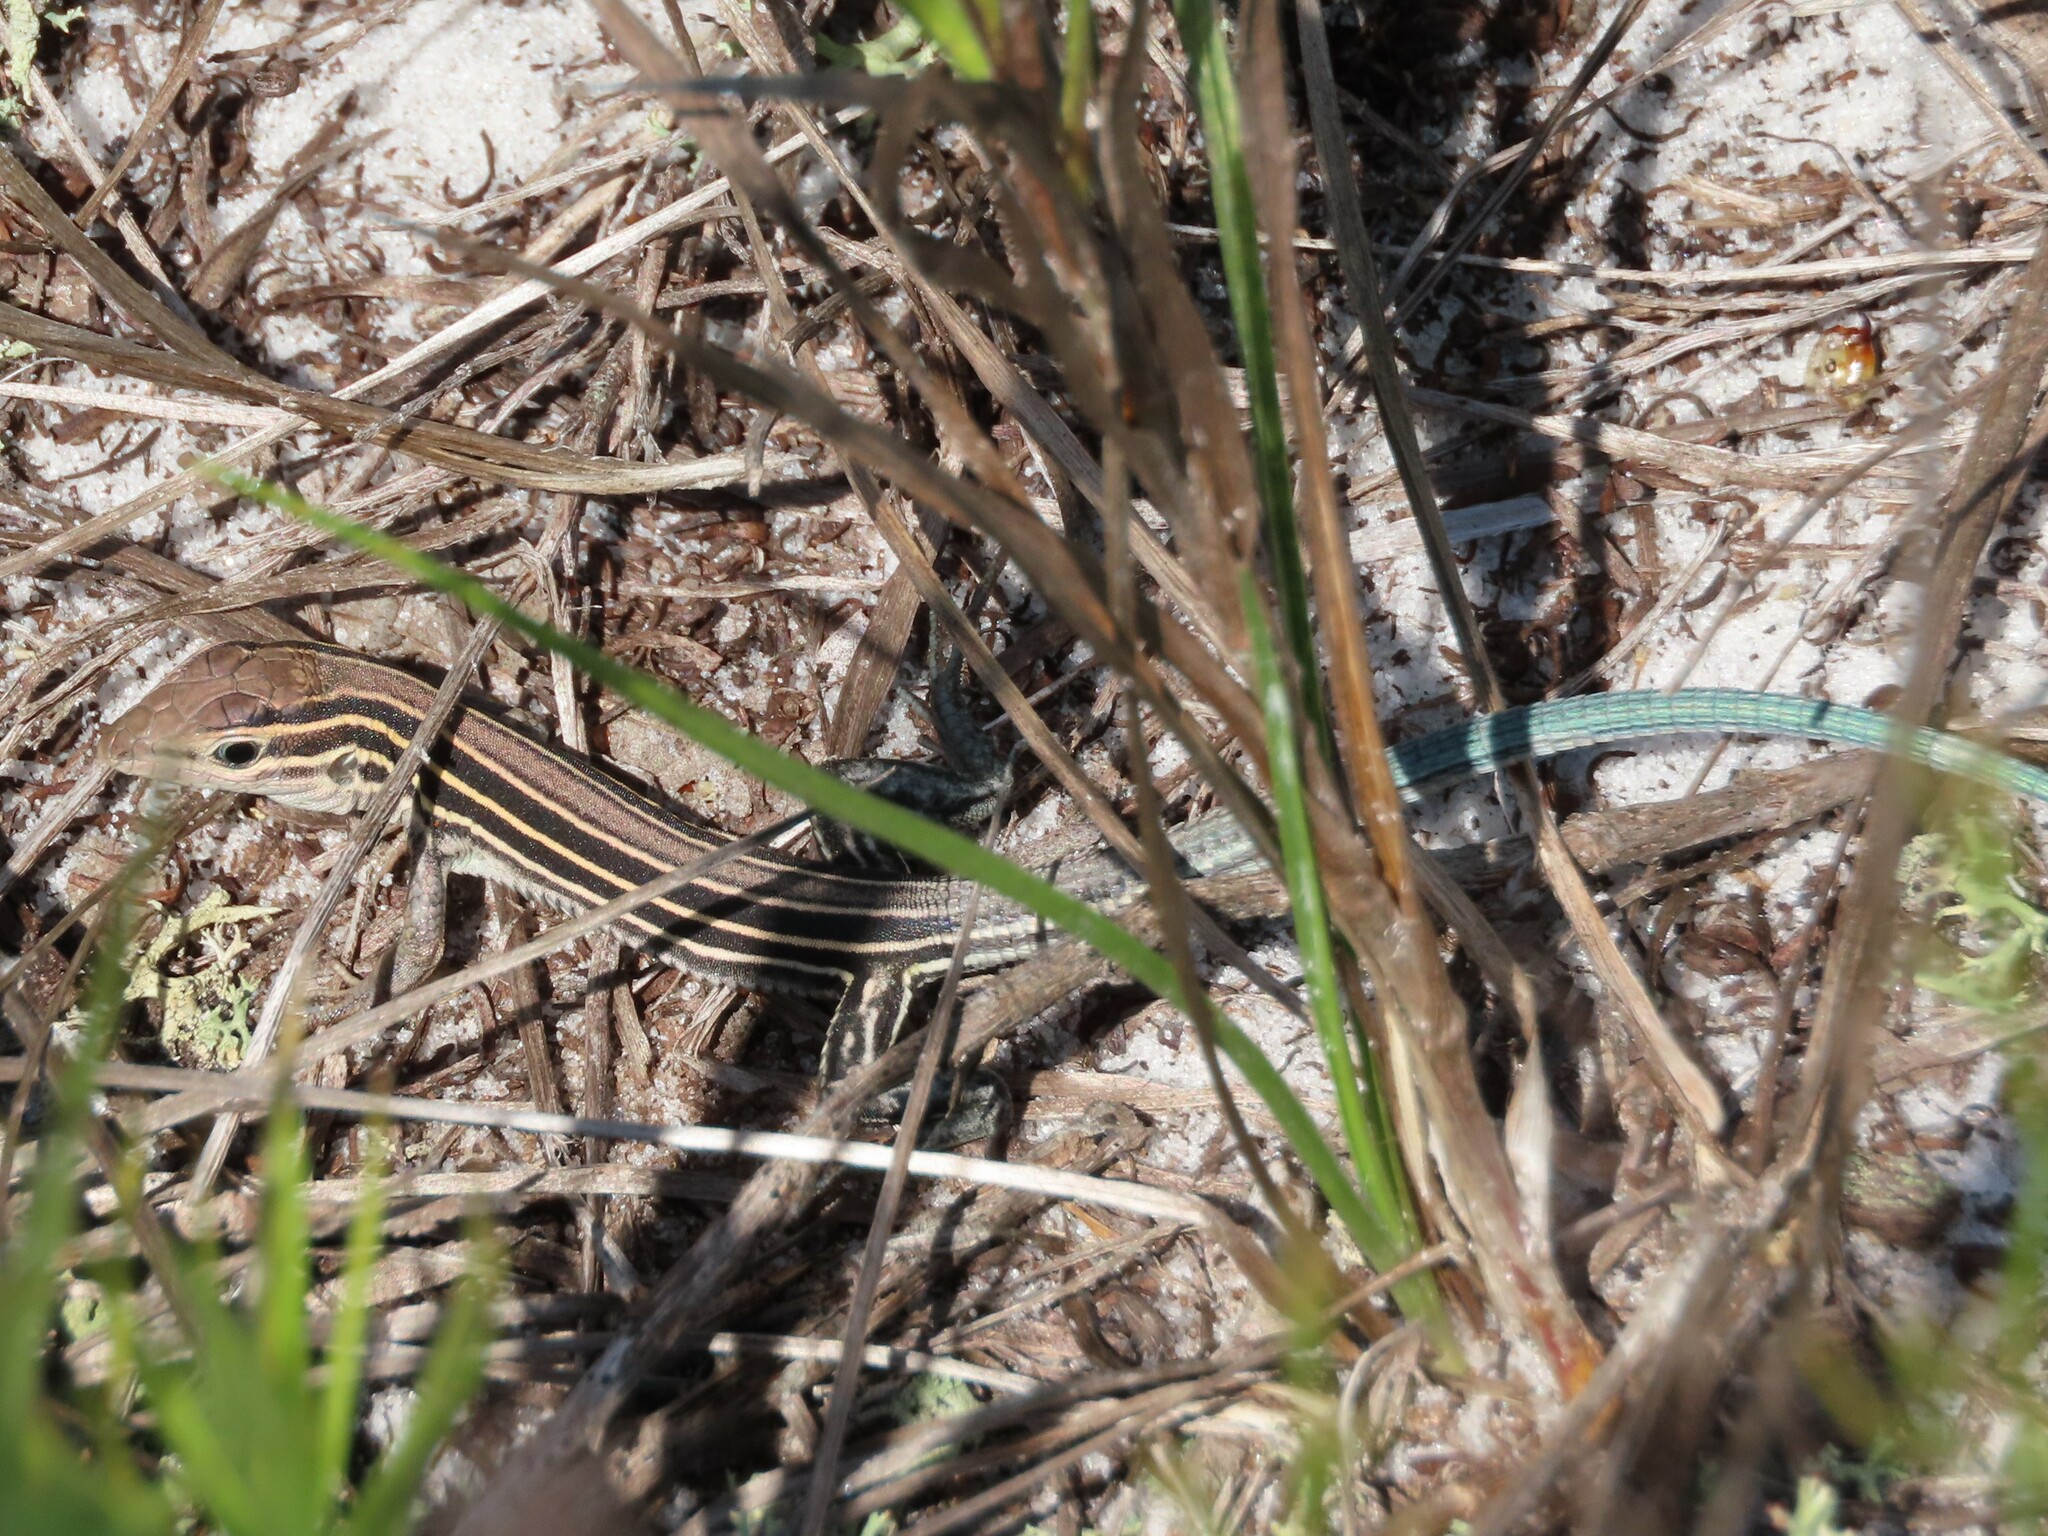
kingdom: Animalia
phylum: Chordata
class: Squamata
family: Teiidae
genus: Aspidoscelis
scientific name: Aspidoscelis sexlineatus
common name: Six-lined racerunner
